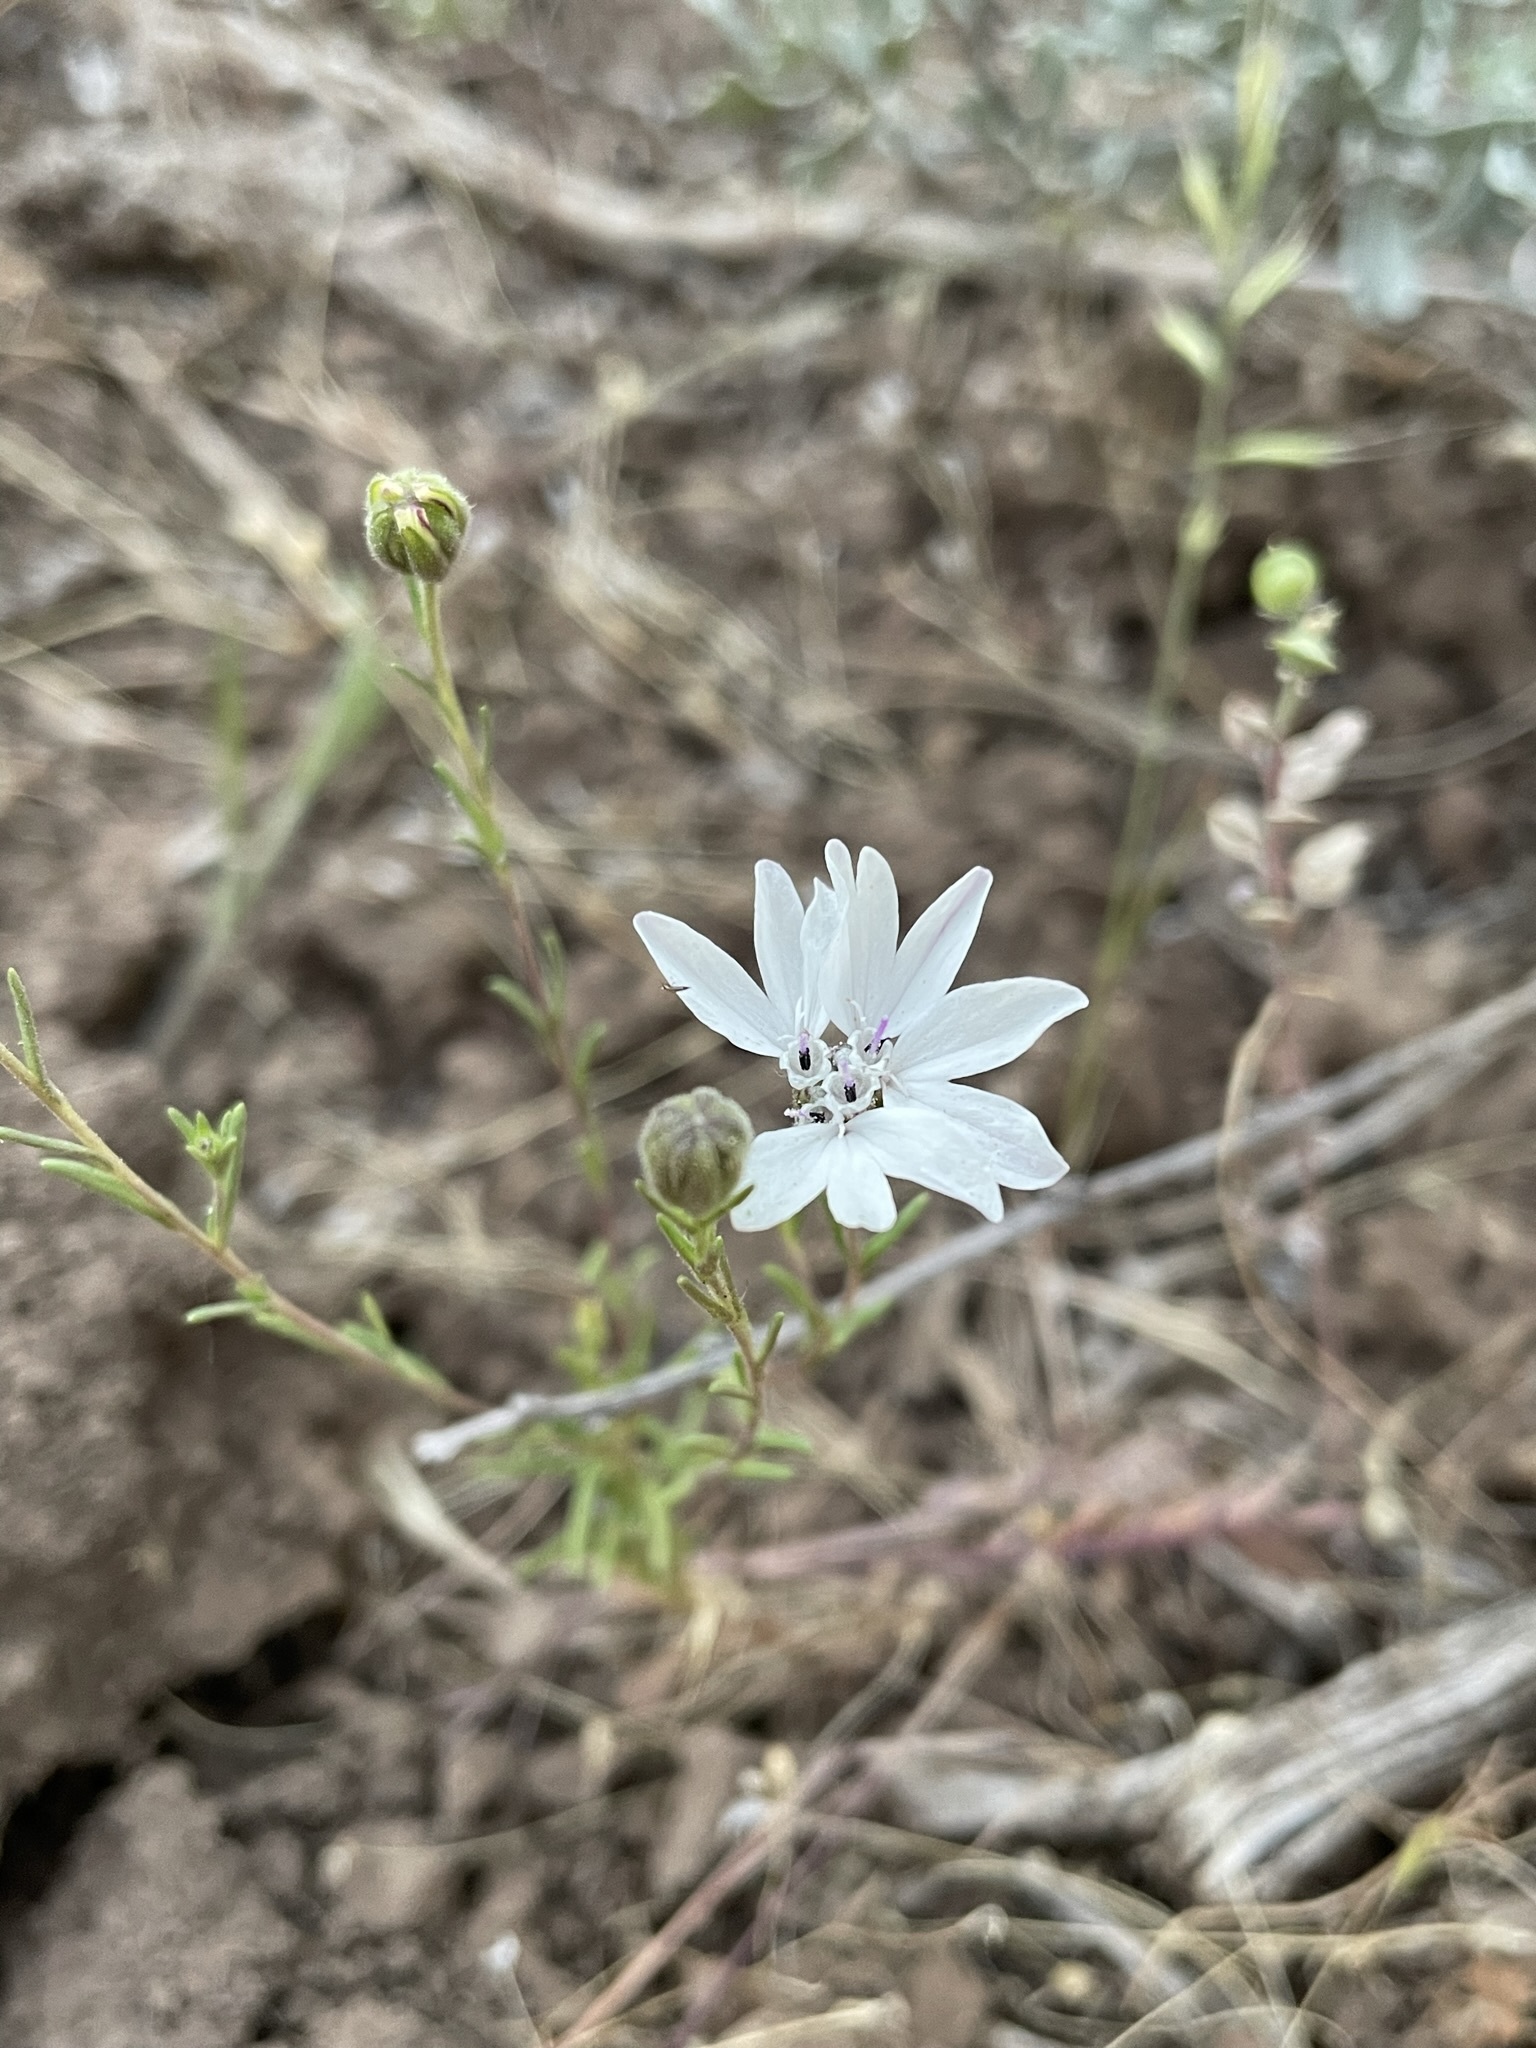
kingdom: Plantae
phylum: Tracheophyta
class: Magnoliopsida
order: Asterales
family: Asteraceae
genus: Blepharipappus
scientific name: Blepharipappus scaber
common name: Rough blepharipappus
